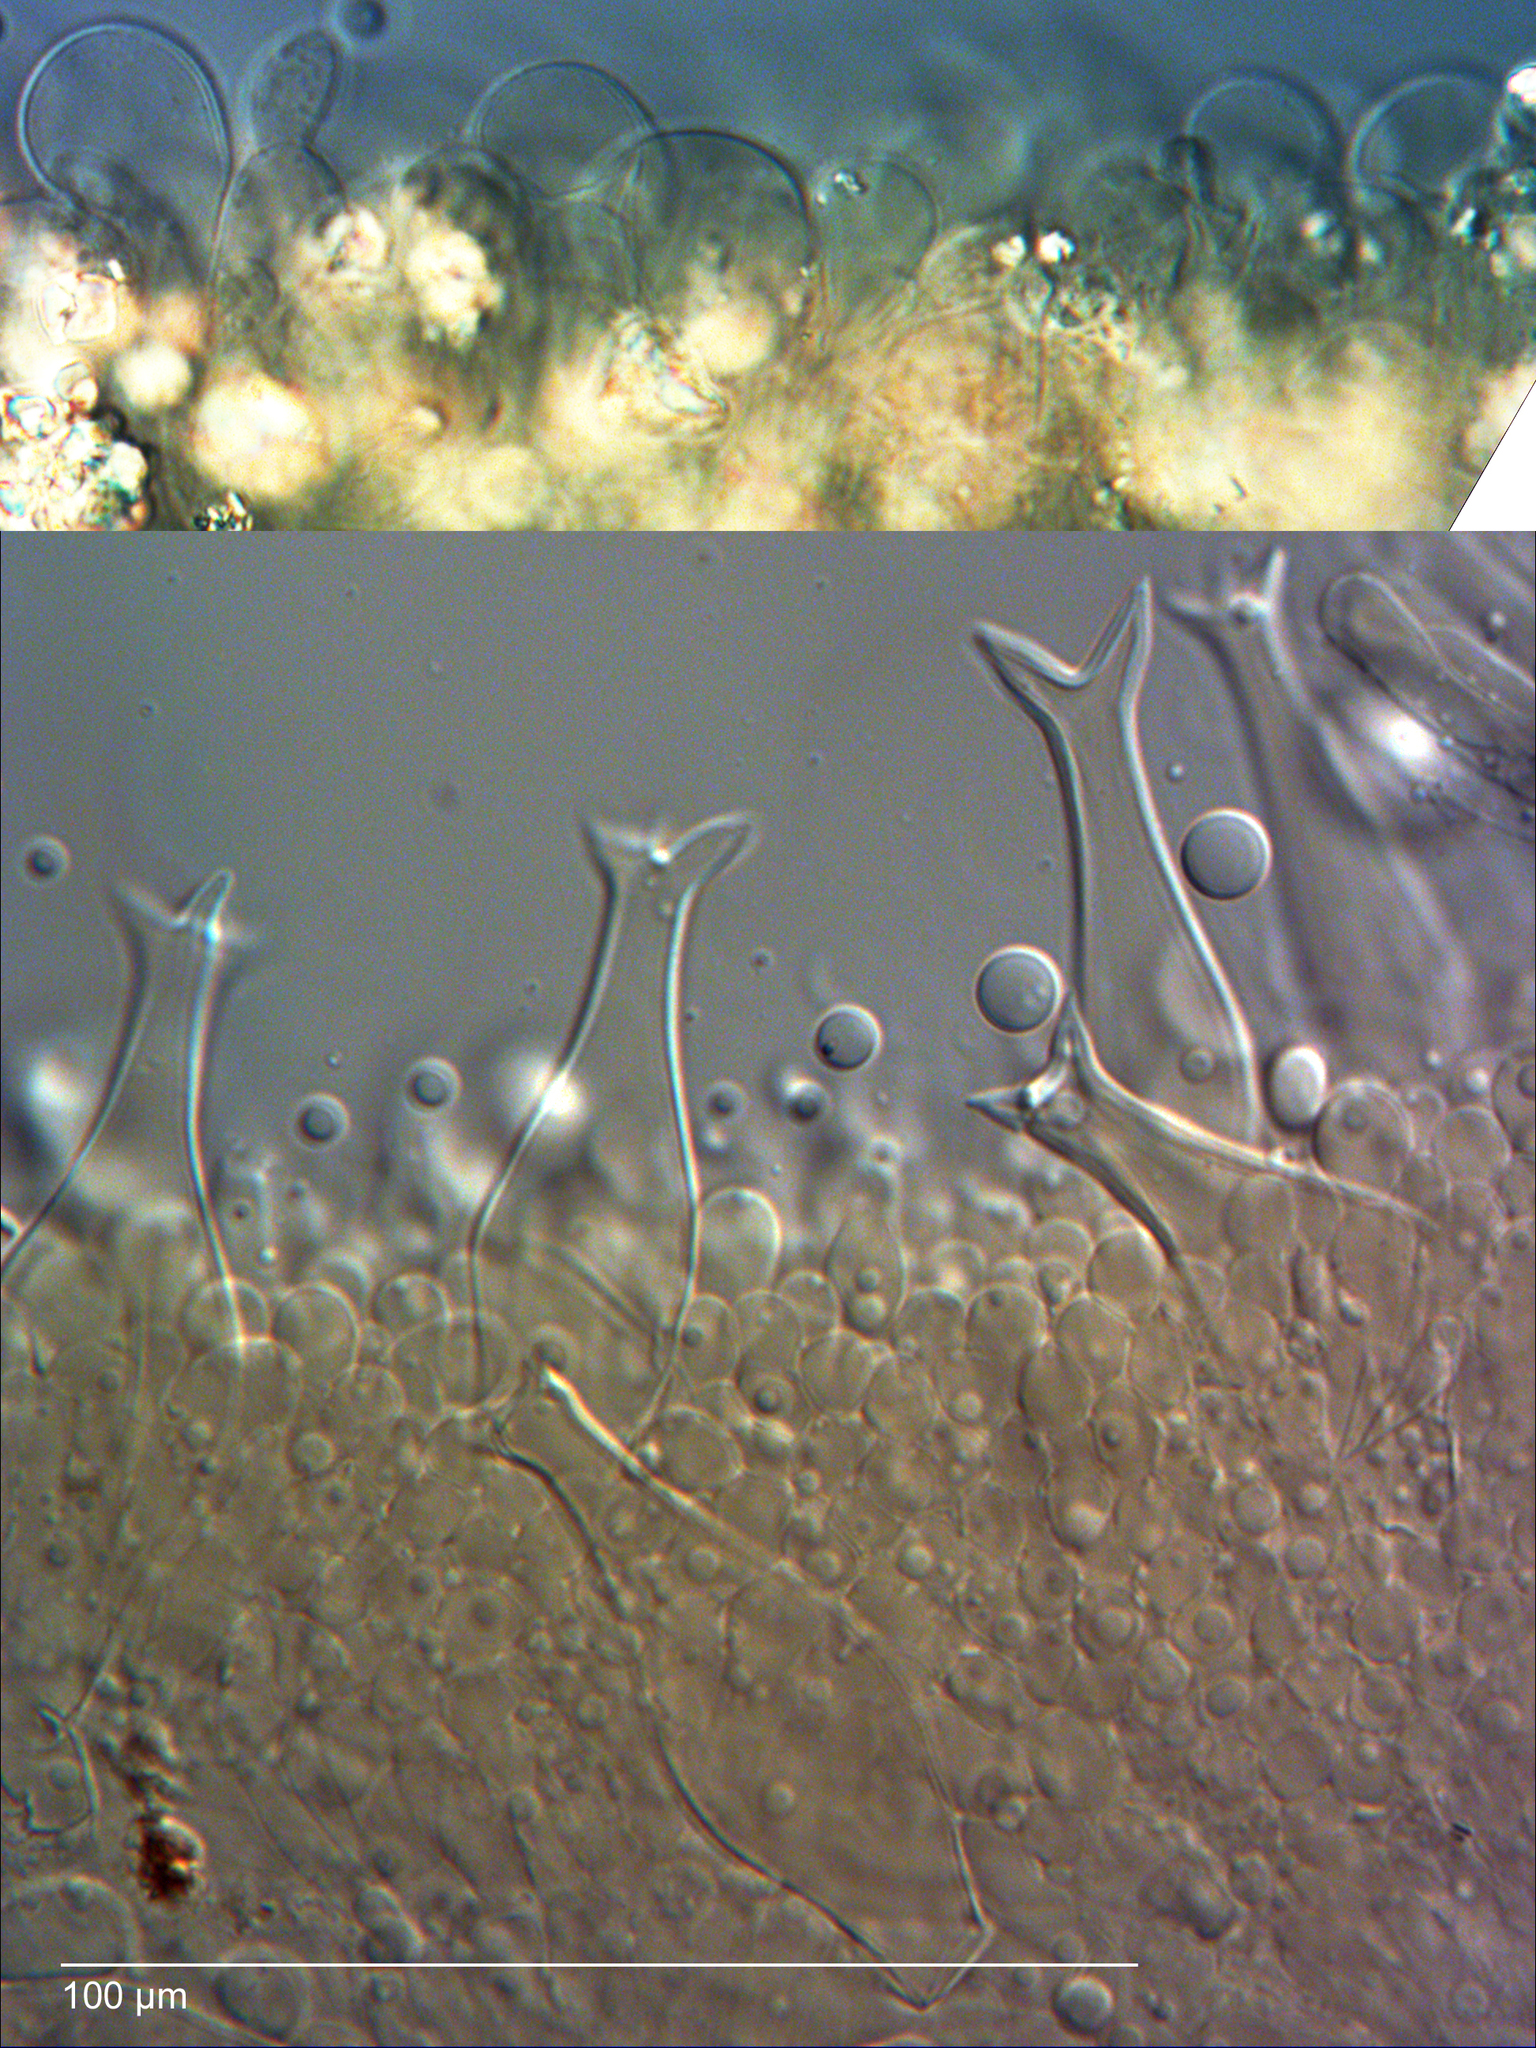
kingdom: Fungi
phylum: Basidiomycota
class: Agaricomycetes
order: Agaricales
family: Pluteaceae
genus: Pluteus
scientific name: Pluteus pouzarianus
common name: Conifer shield
